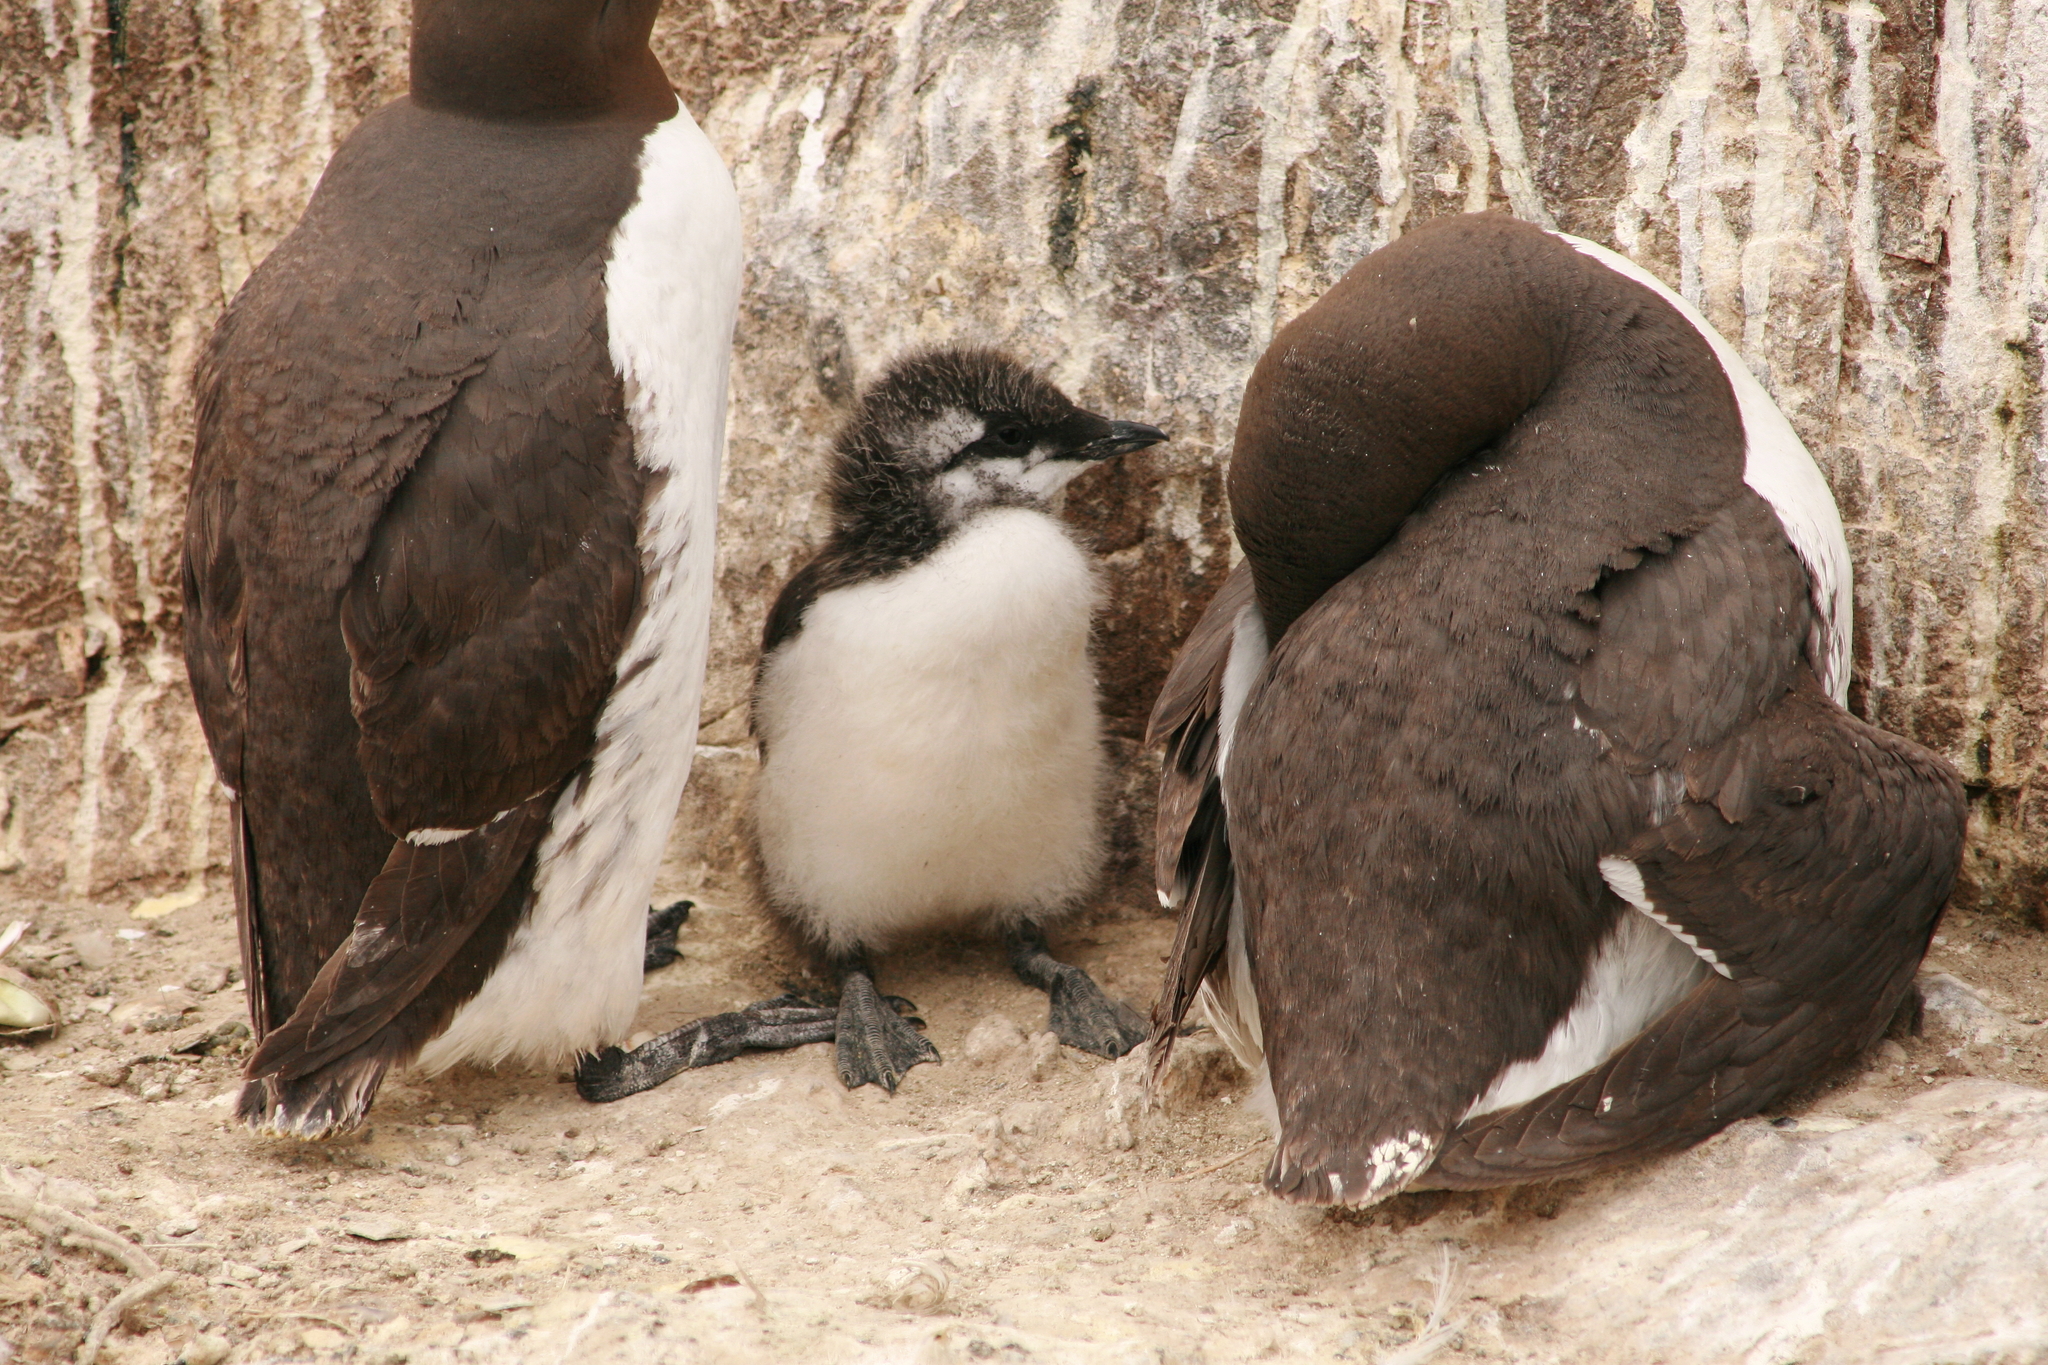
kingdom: Animalia
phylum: Chordata
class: Aves
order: Charadriiformes
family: Alcidae
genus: Uria
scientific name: Uria aalge
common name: Common murre
